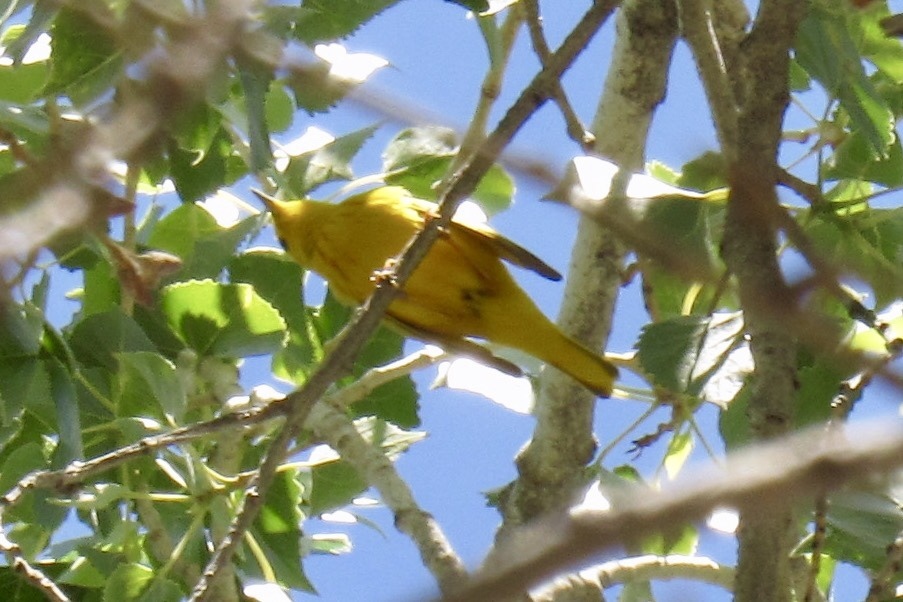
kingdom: Animalia
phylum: Chordata
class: Aves
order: Passeriformes
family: Parulidae
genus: Setophaga
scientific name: Setophaga petechia
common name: Yellow warbler
